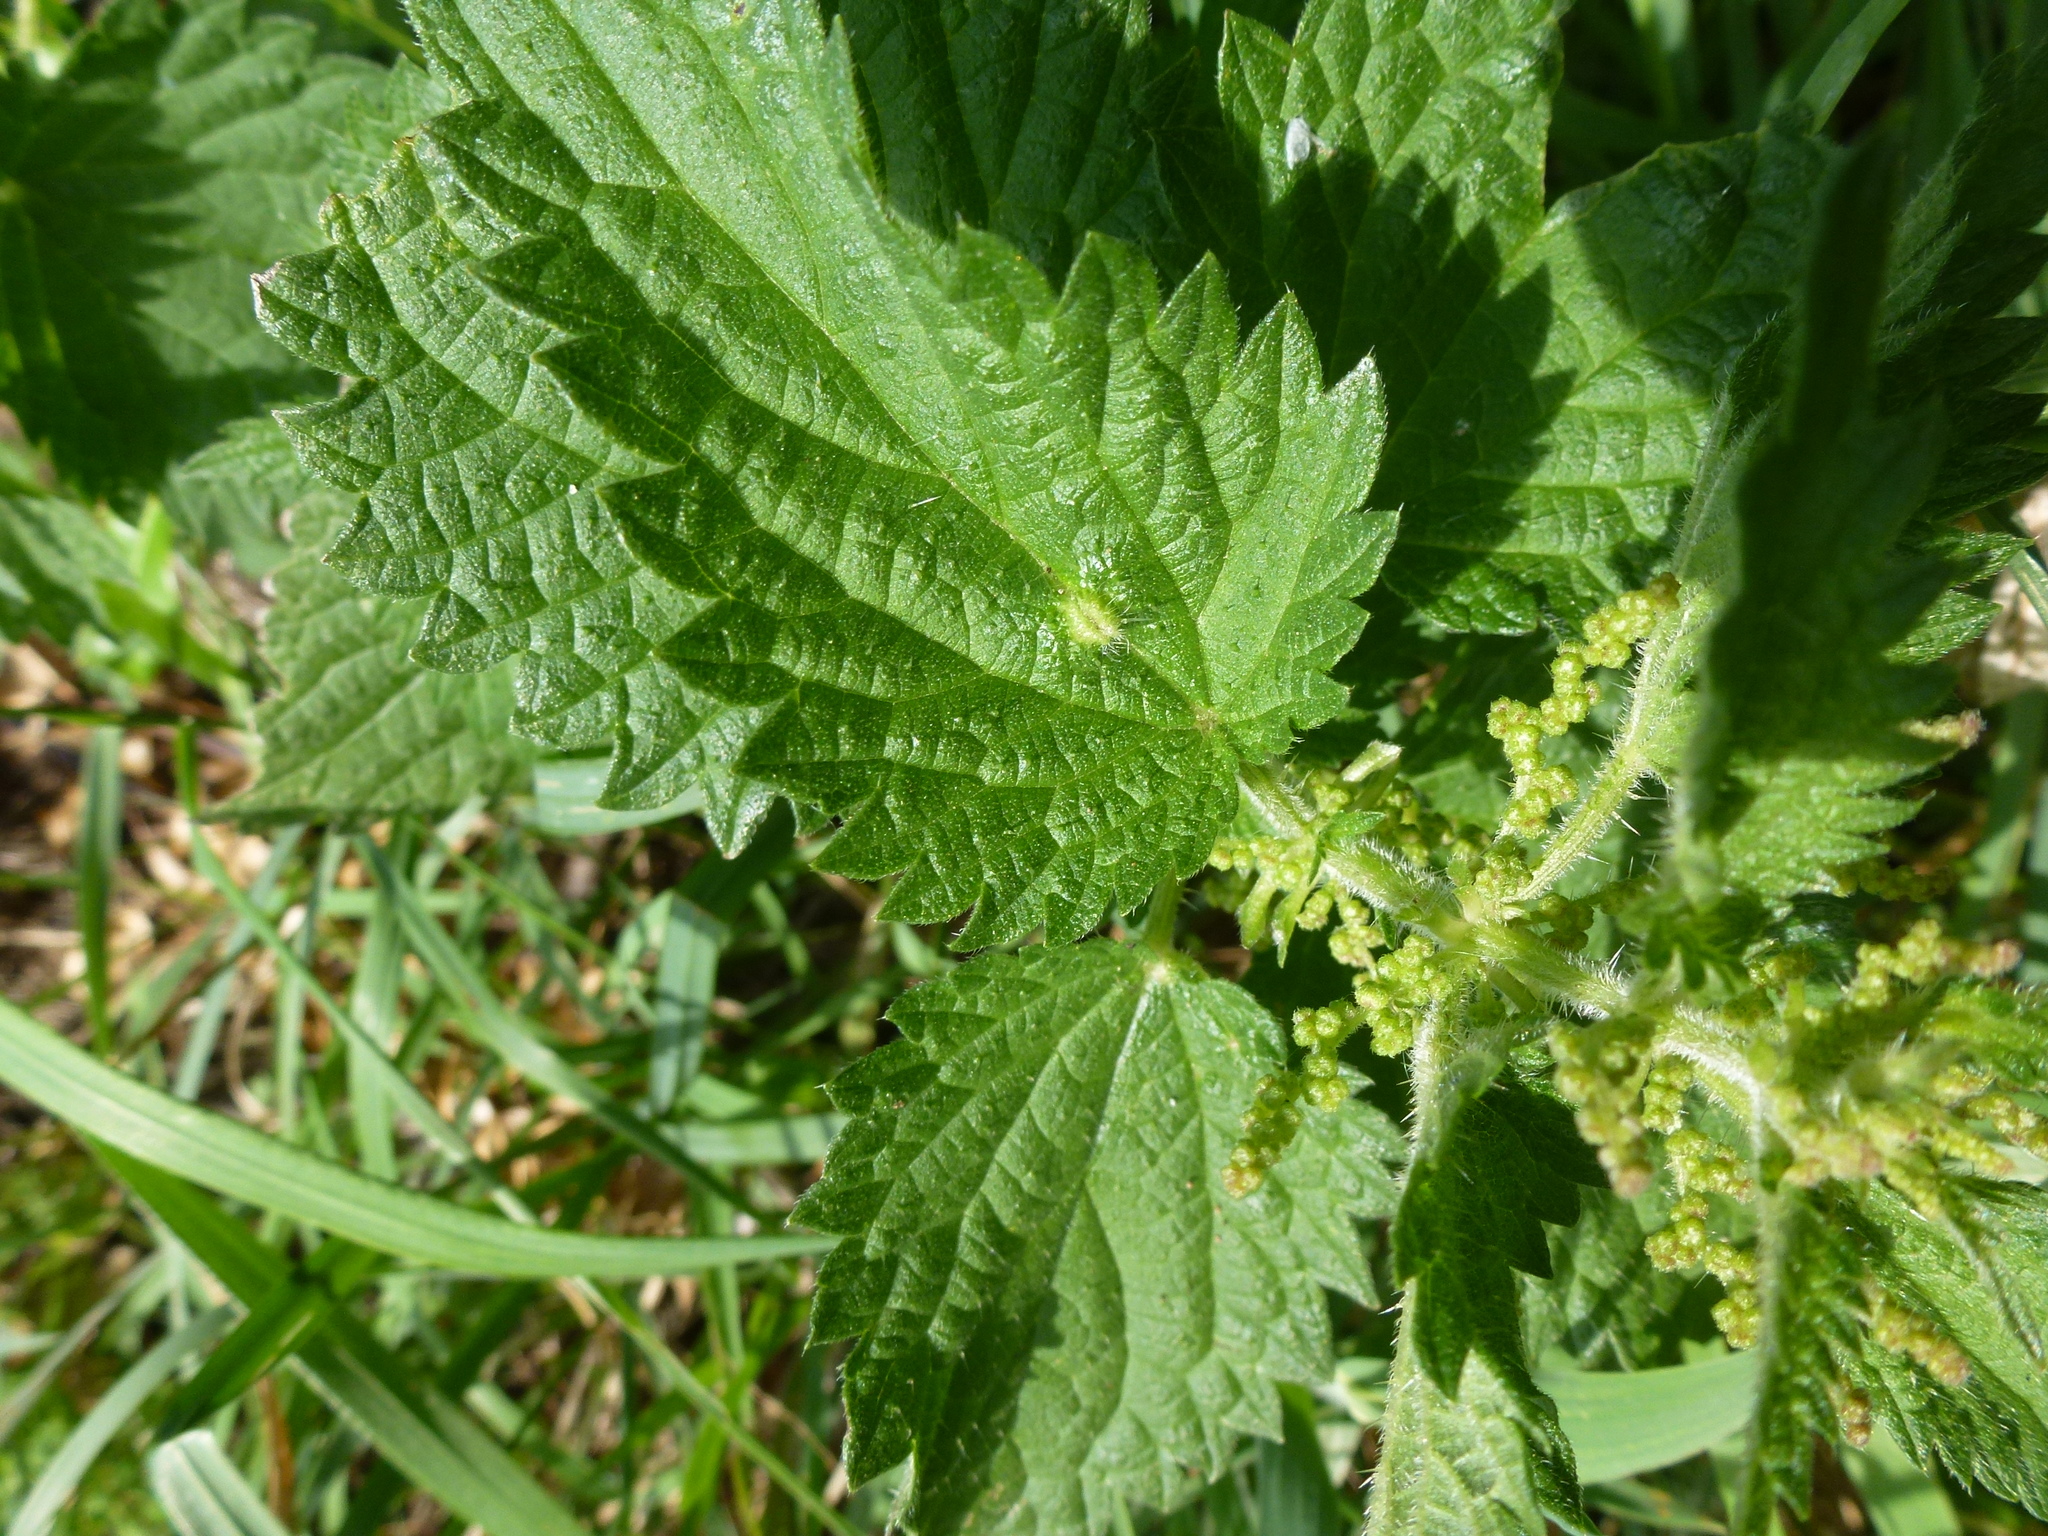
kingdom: Animalia
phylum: Arthropoda
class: Insecta
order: Diptera
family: Cecidomyiidae
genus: Dasineura
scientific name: Dasineura urticae
